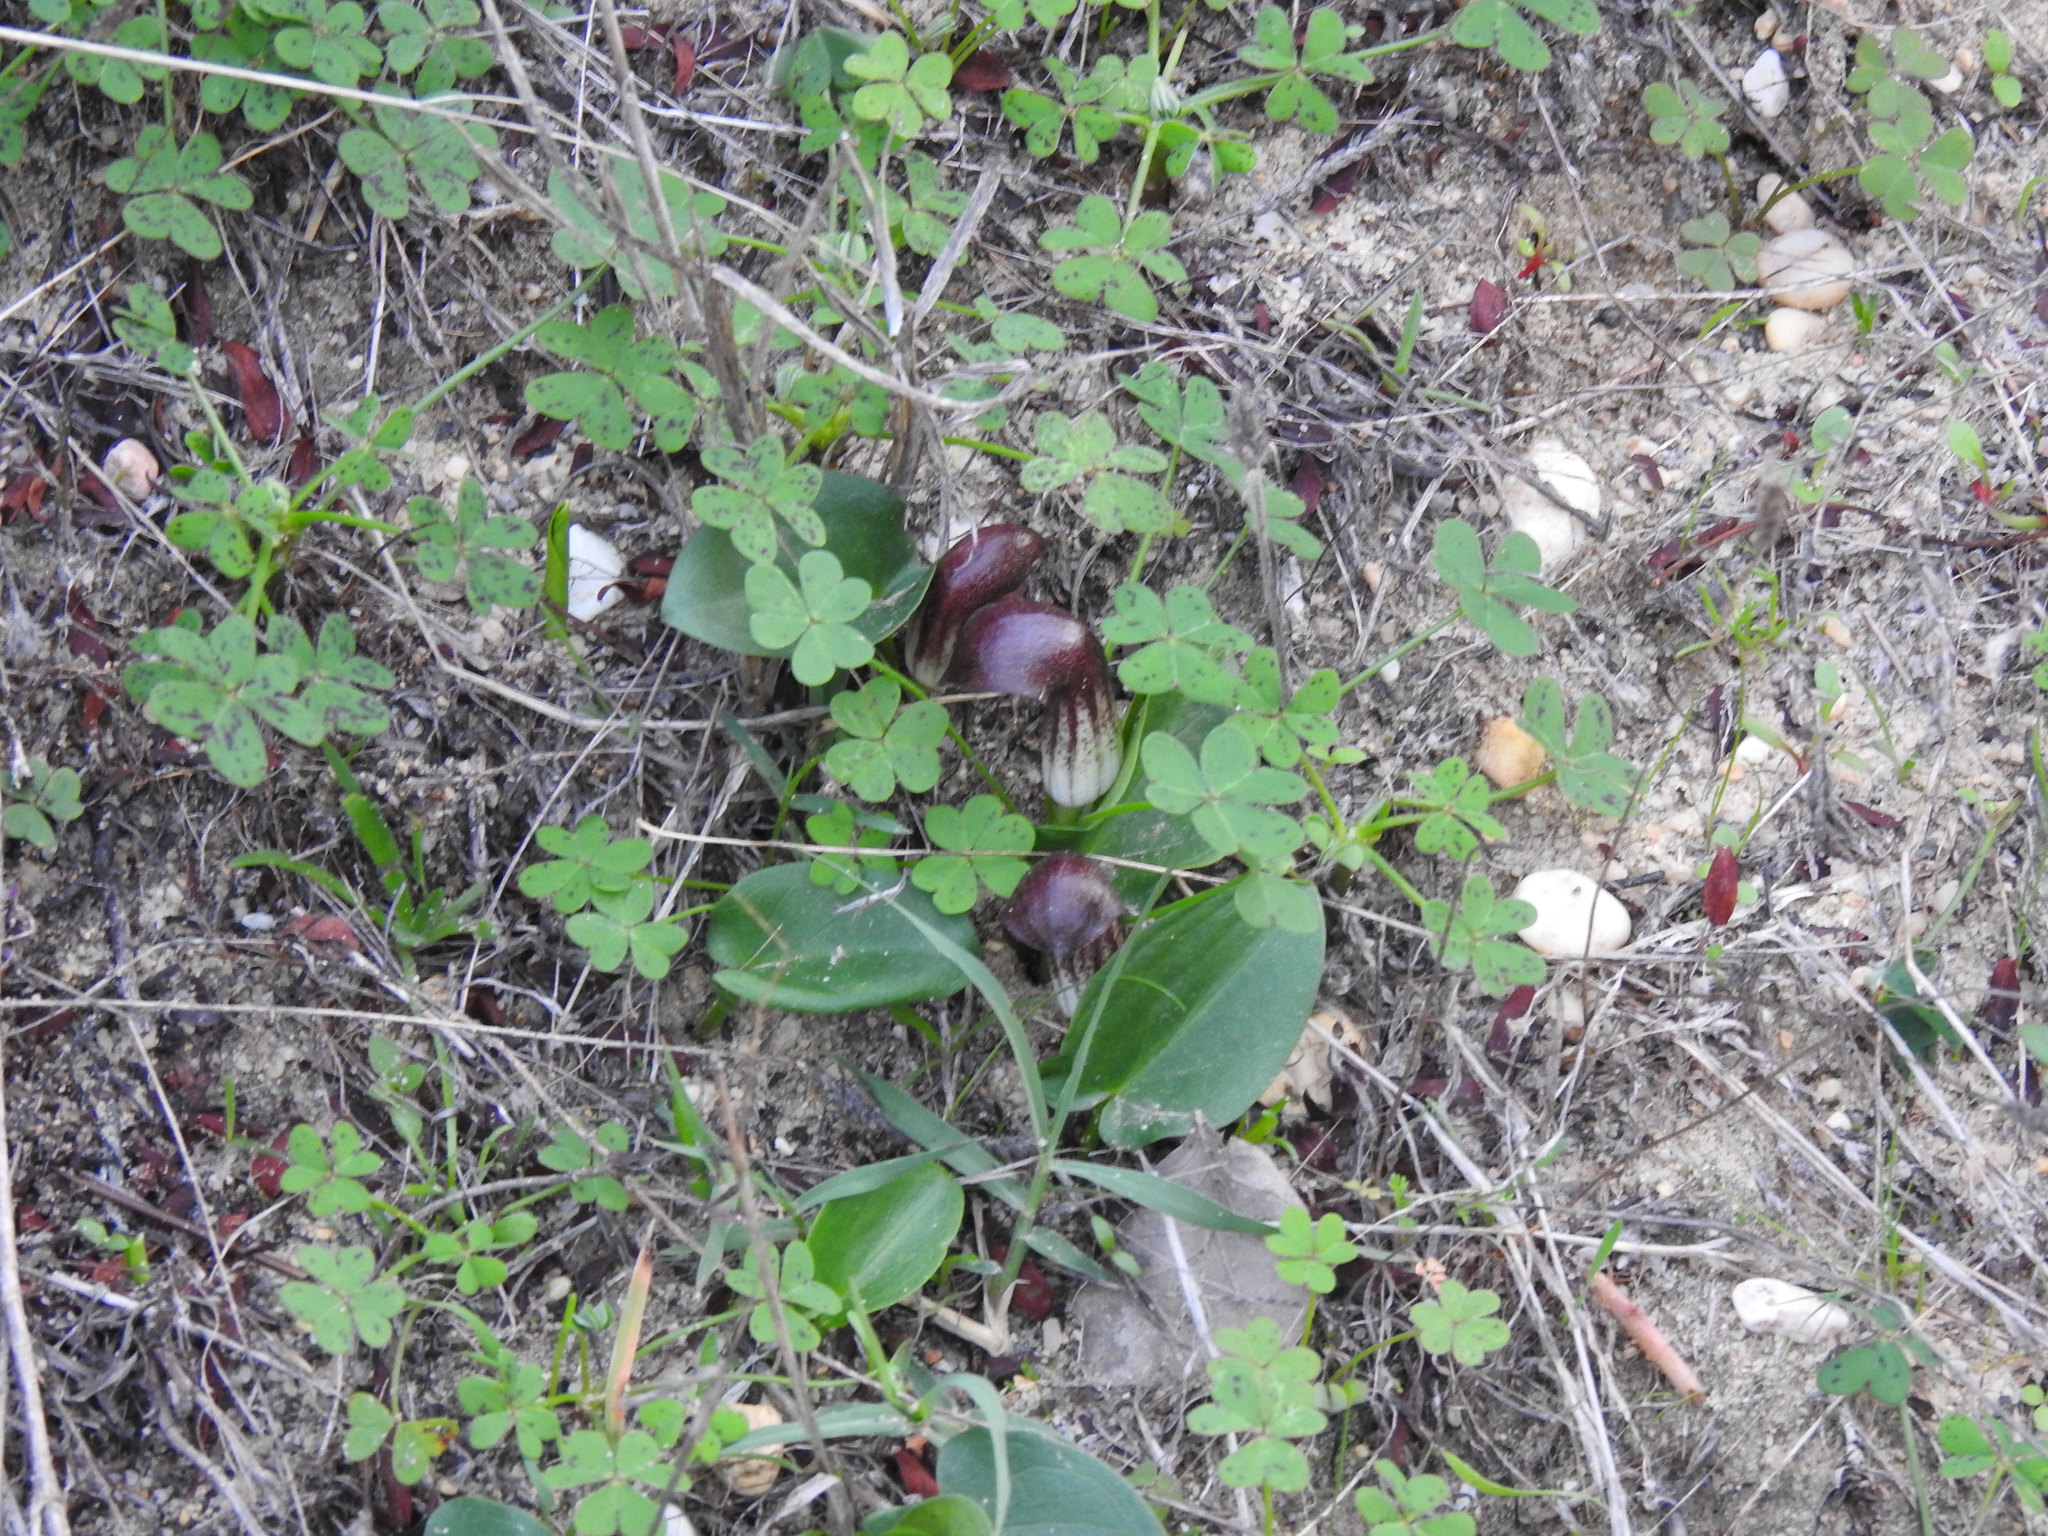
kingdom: Plantae
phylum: Tracheophyta
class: Liliopsida
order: Alismatales
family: Araceae
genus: Arisarum
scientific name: Arisarum simorrhinum
